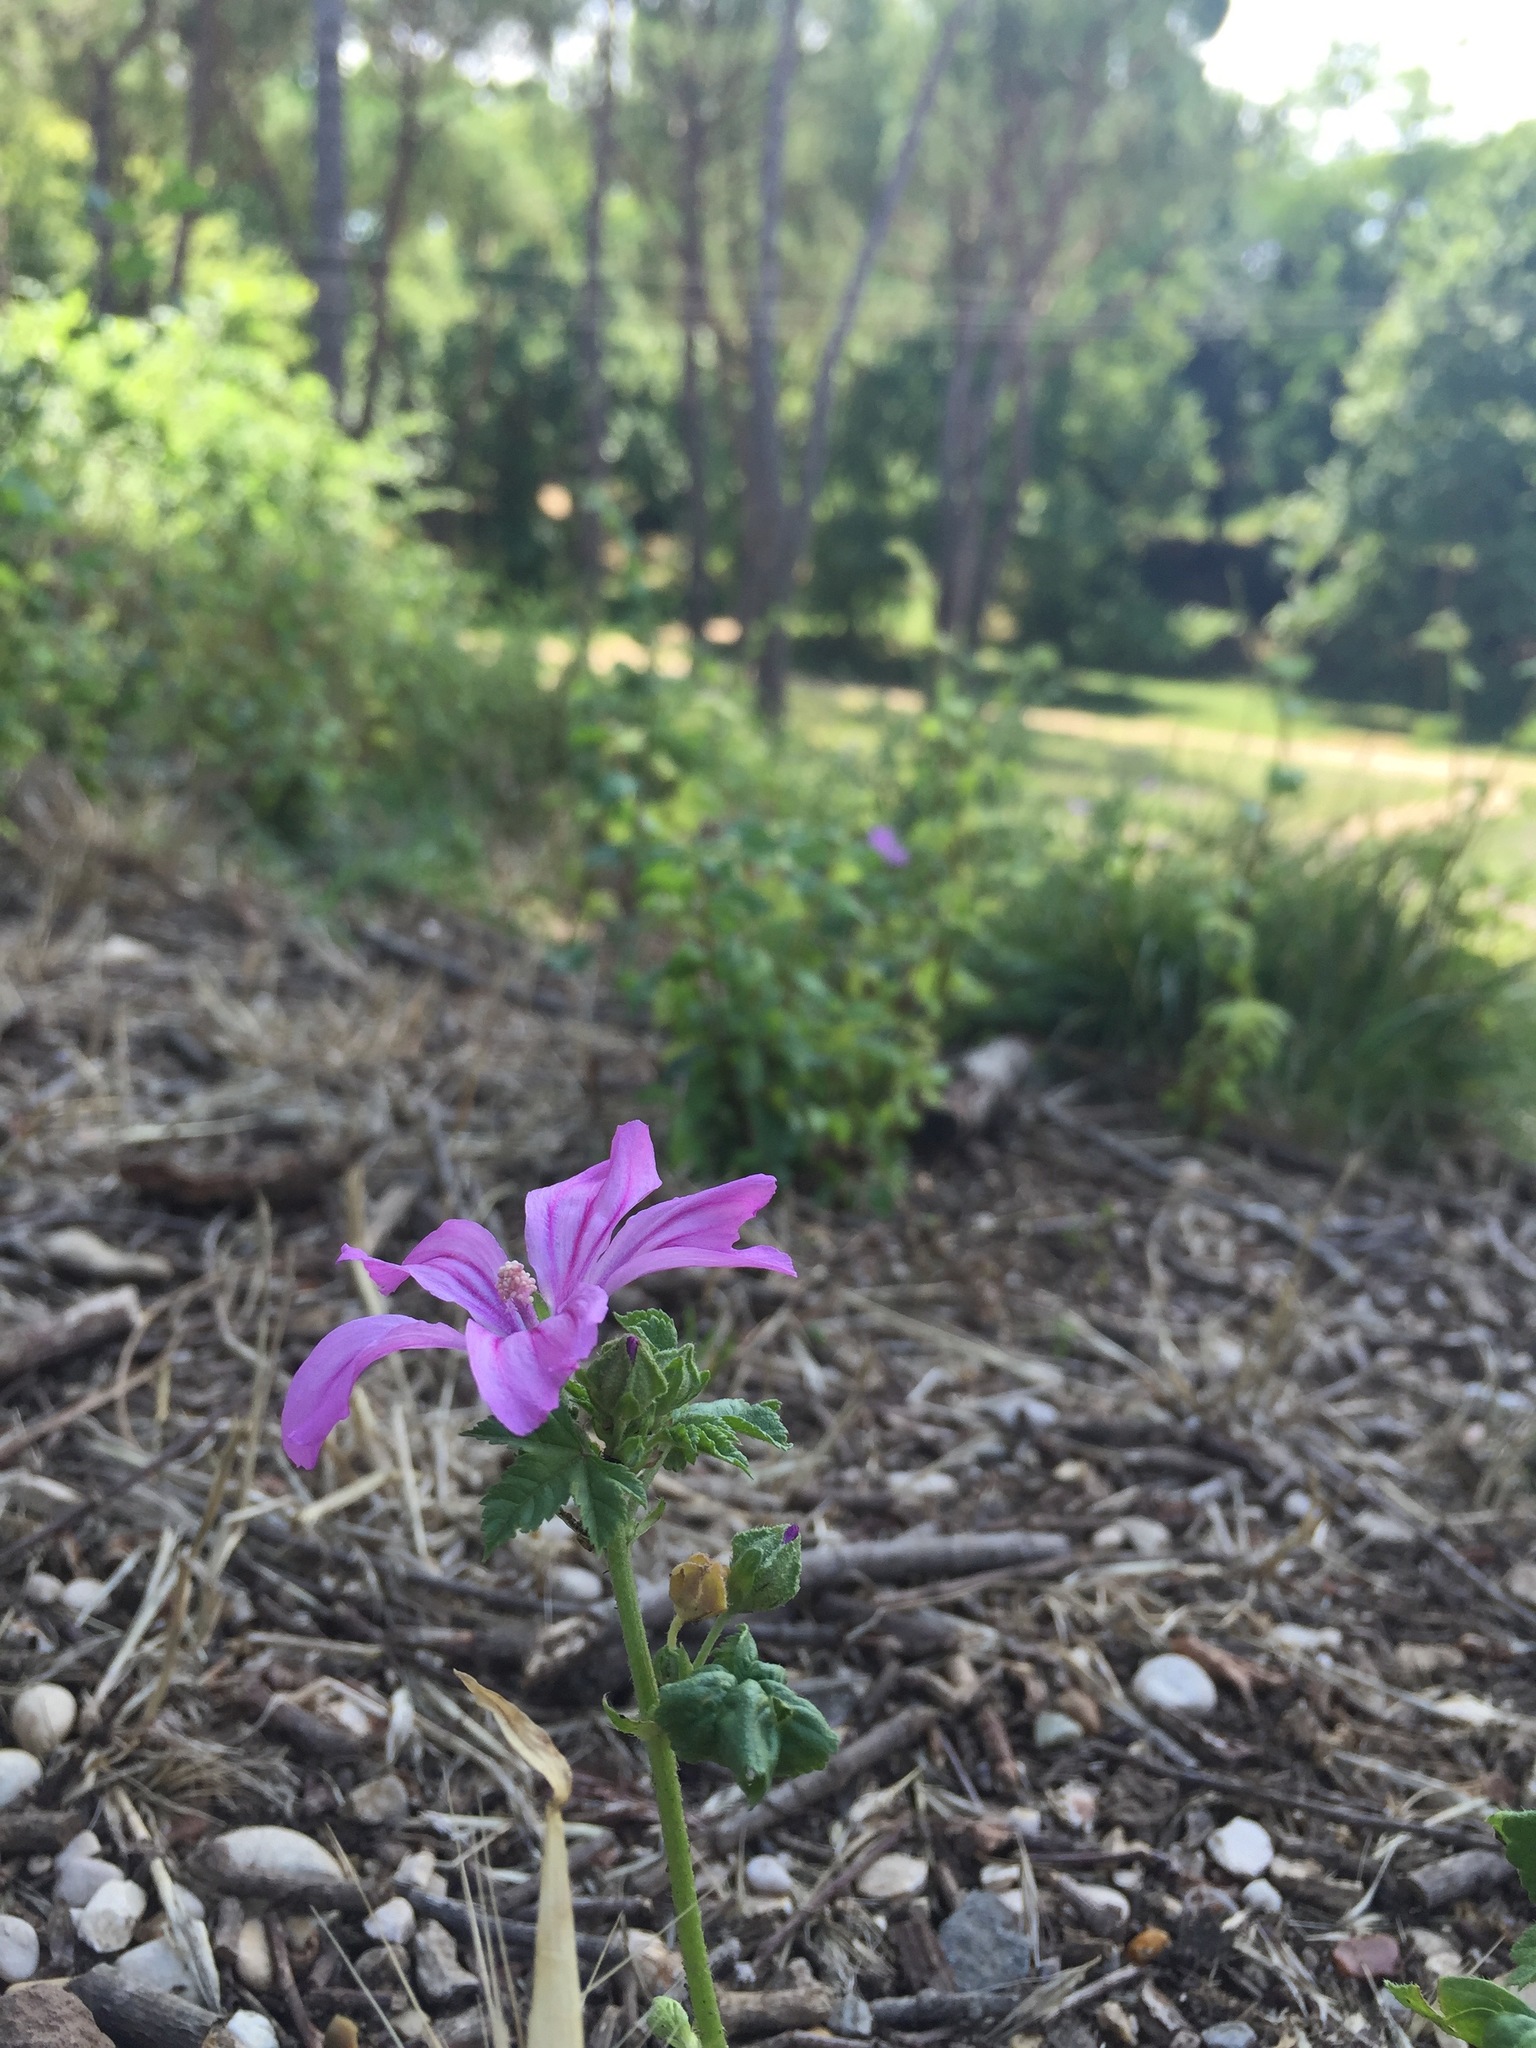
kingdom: Plantae
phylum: Tracheophyta
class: Magnoliopsida
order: Malvales
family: Malvaceae
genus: Malva
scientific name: Malva sylvestris
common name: Common mallow
